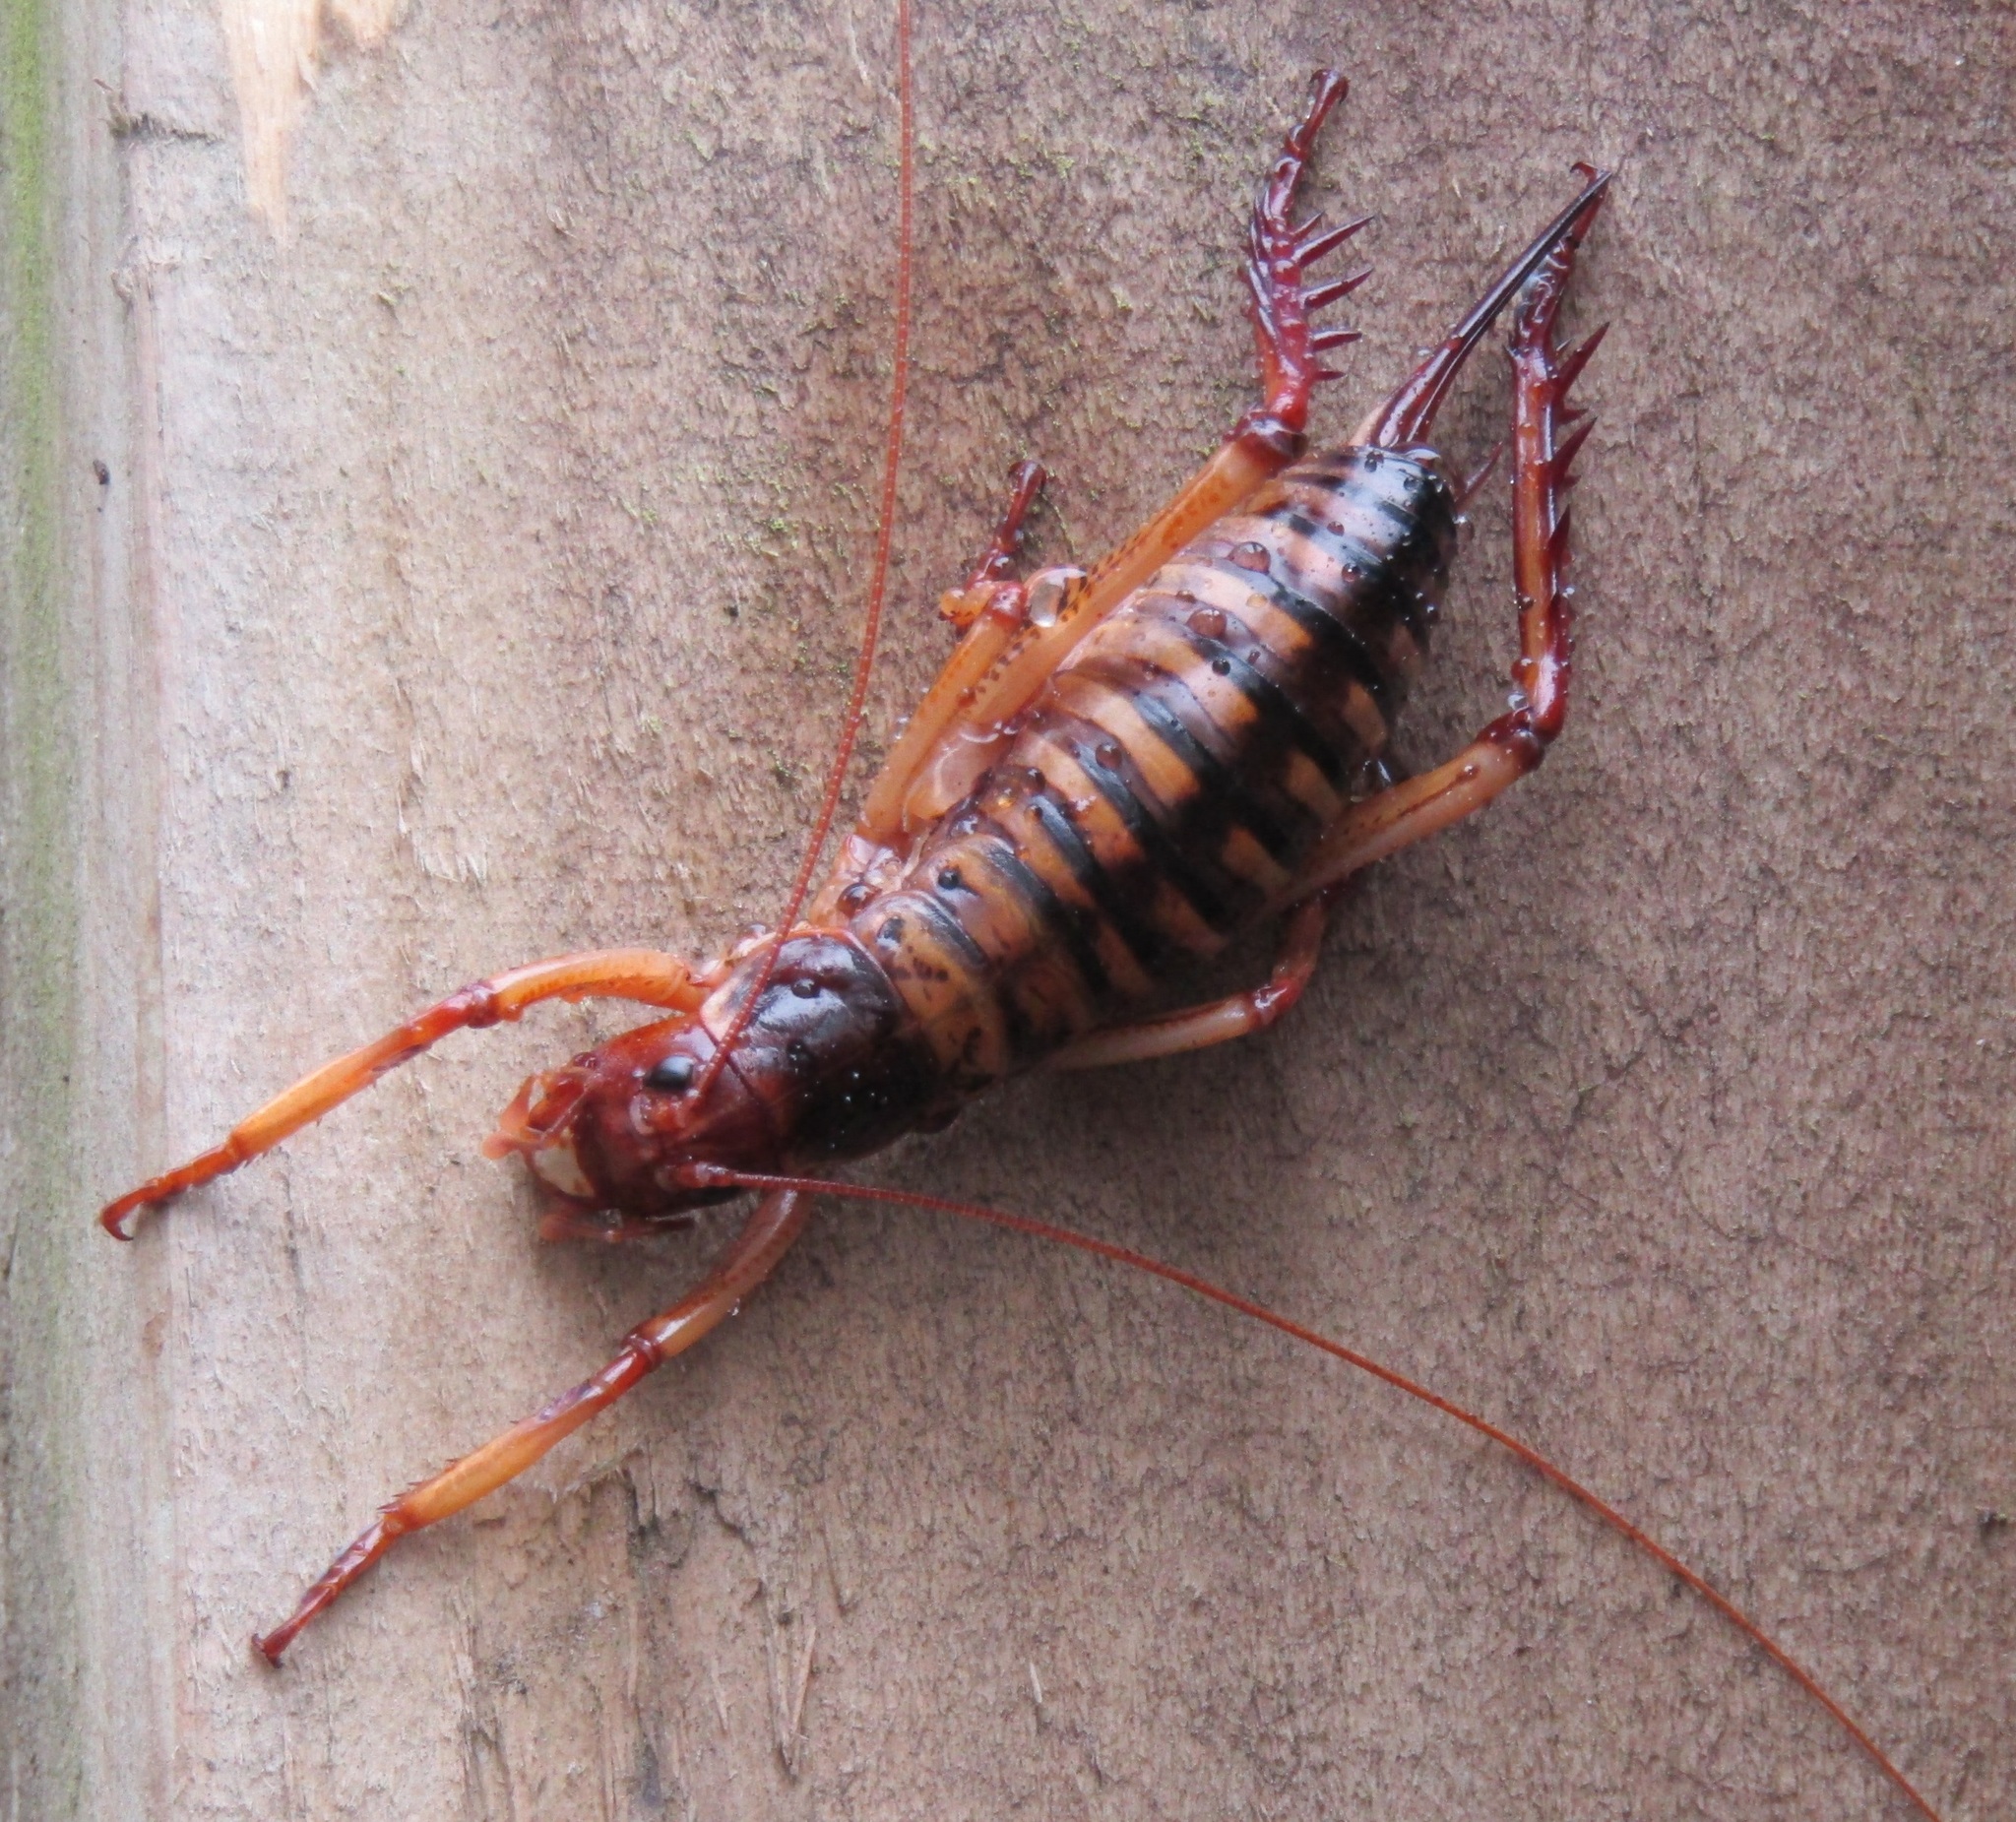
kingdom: Animalia
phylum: Arthropoda
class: Insecta
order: Orthoptera
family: Anostostomatidae
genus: Hemideina
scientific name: Hemideina crassidens
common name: Wellington tree weta
